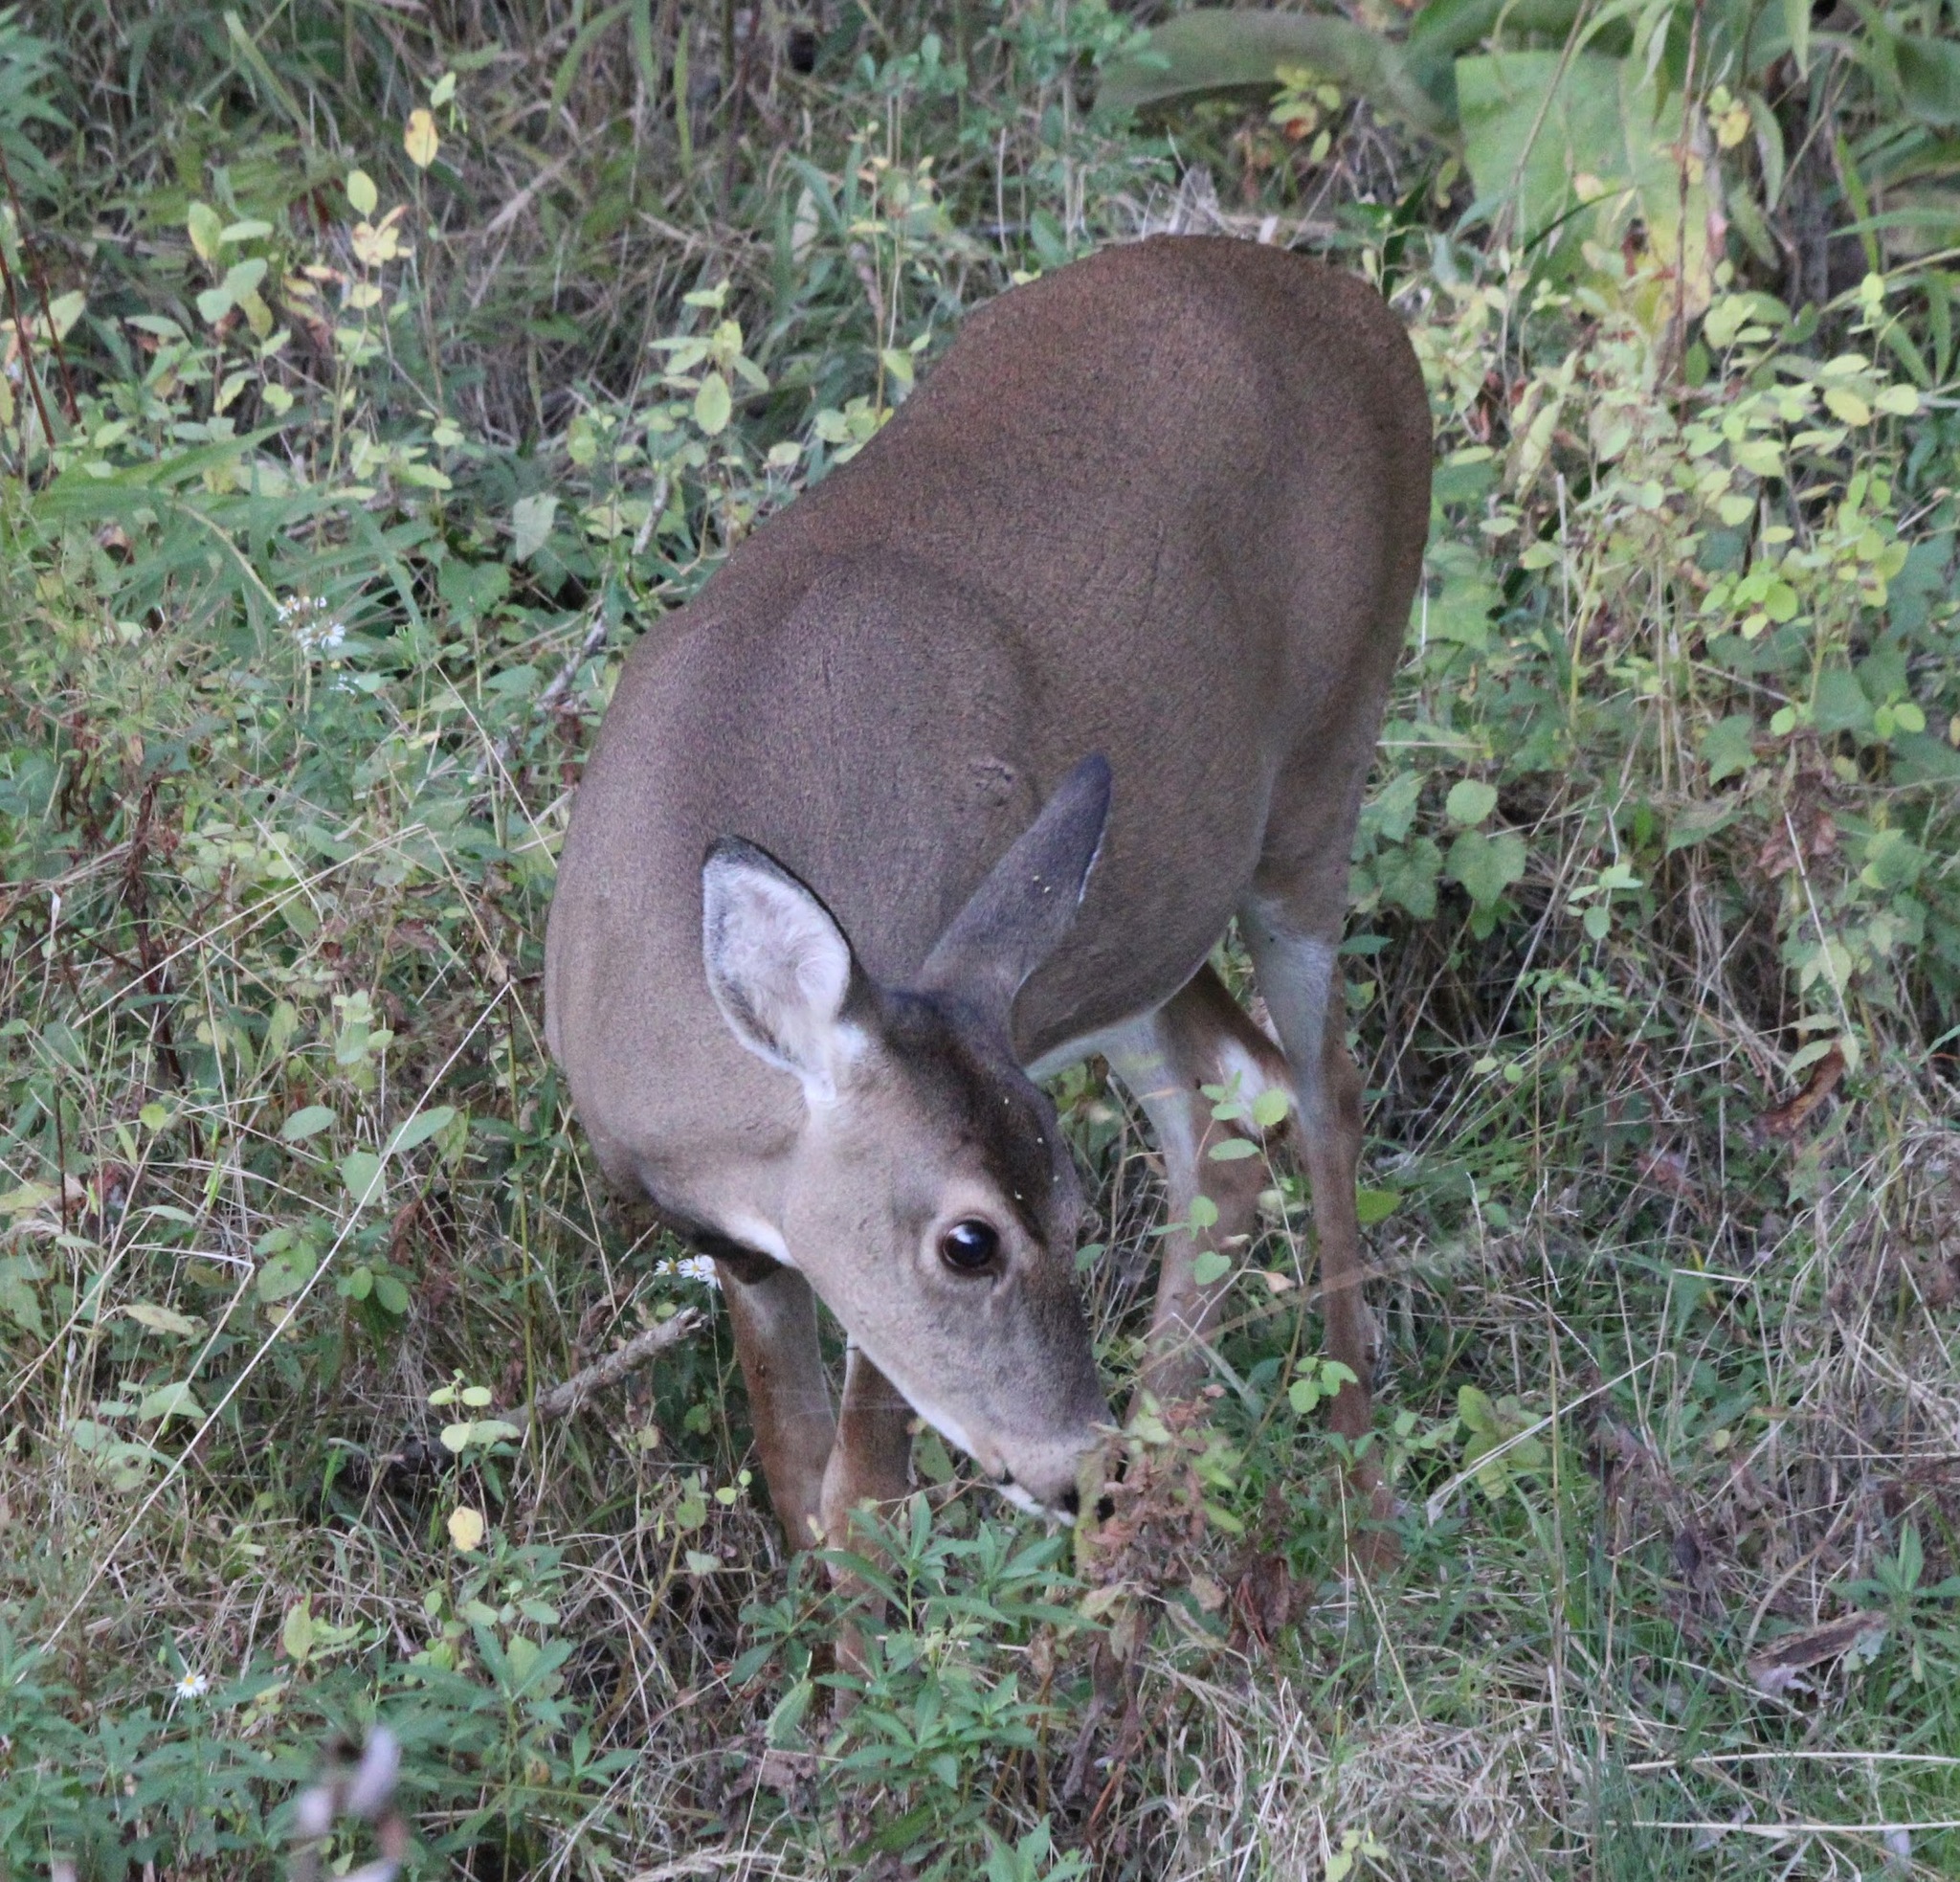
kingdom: Animalia
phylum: Chordata
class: Mammalia
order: Artiodactyla
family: Cervidae
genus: Odocoileus
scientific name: Odocoileus virginianus
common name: White-tailed deer
